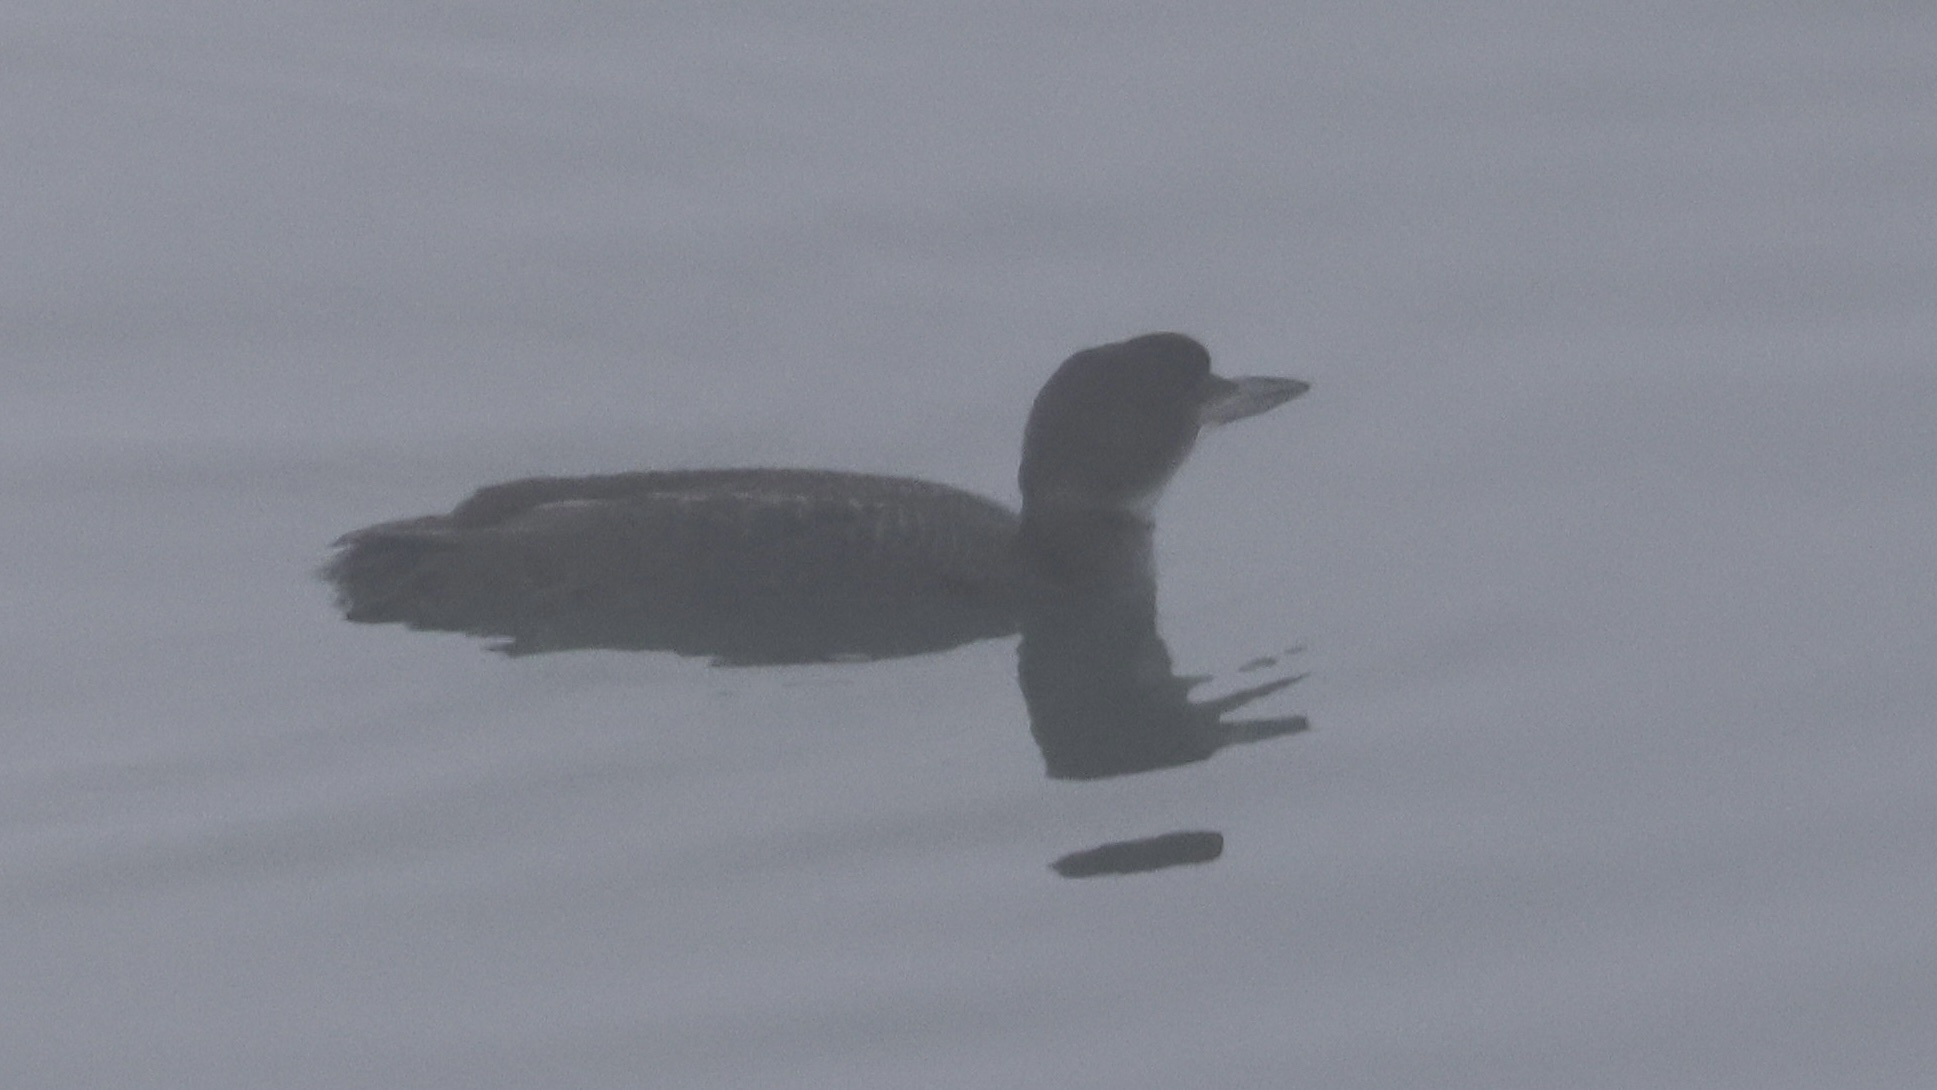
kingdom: Animalia
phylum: Chordata
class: Aves
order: Gaviiformes
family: Gaviidae
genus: Gavia
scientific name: Gavia immer
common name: Common loon
